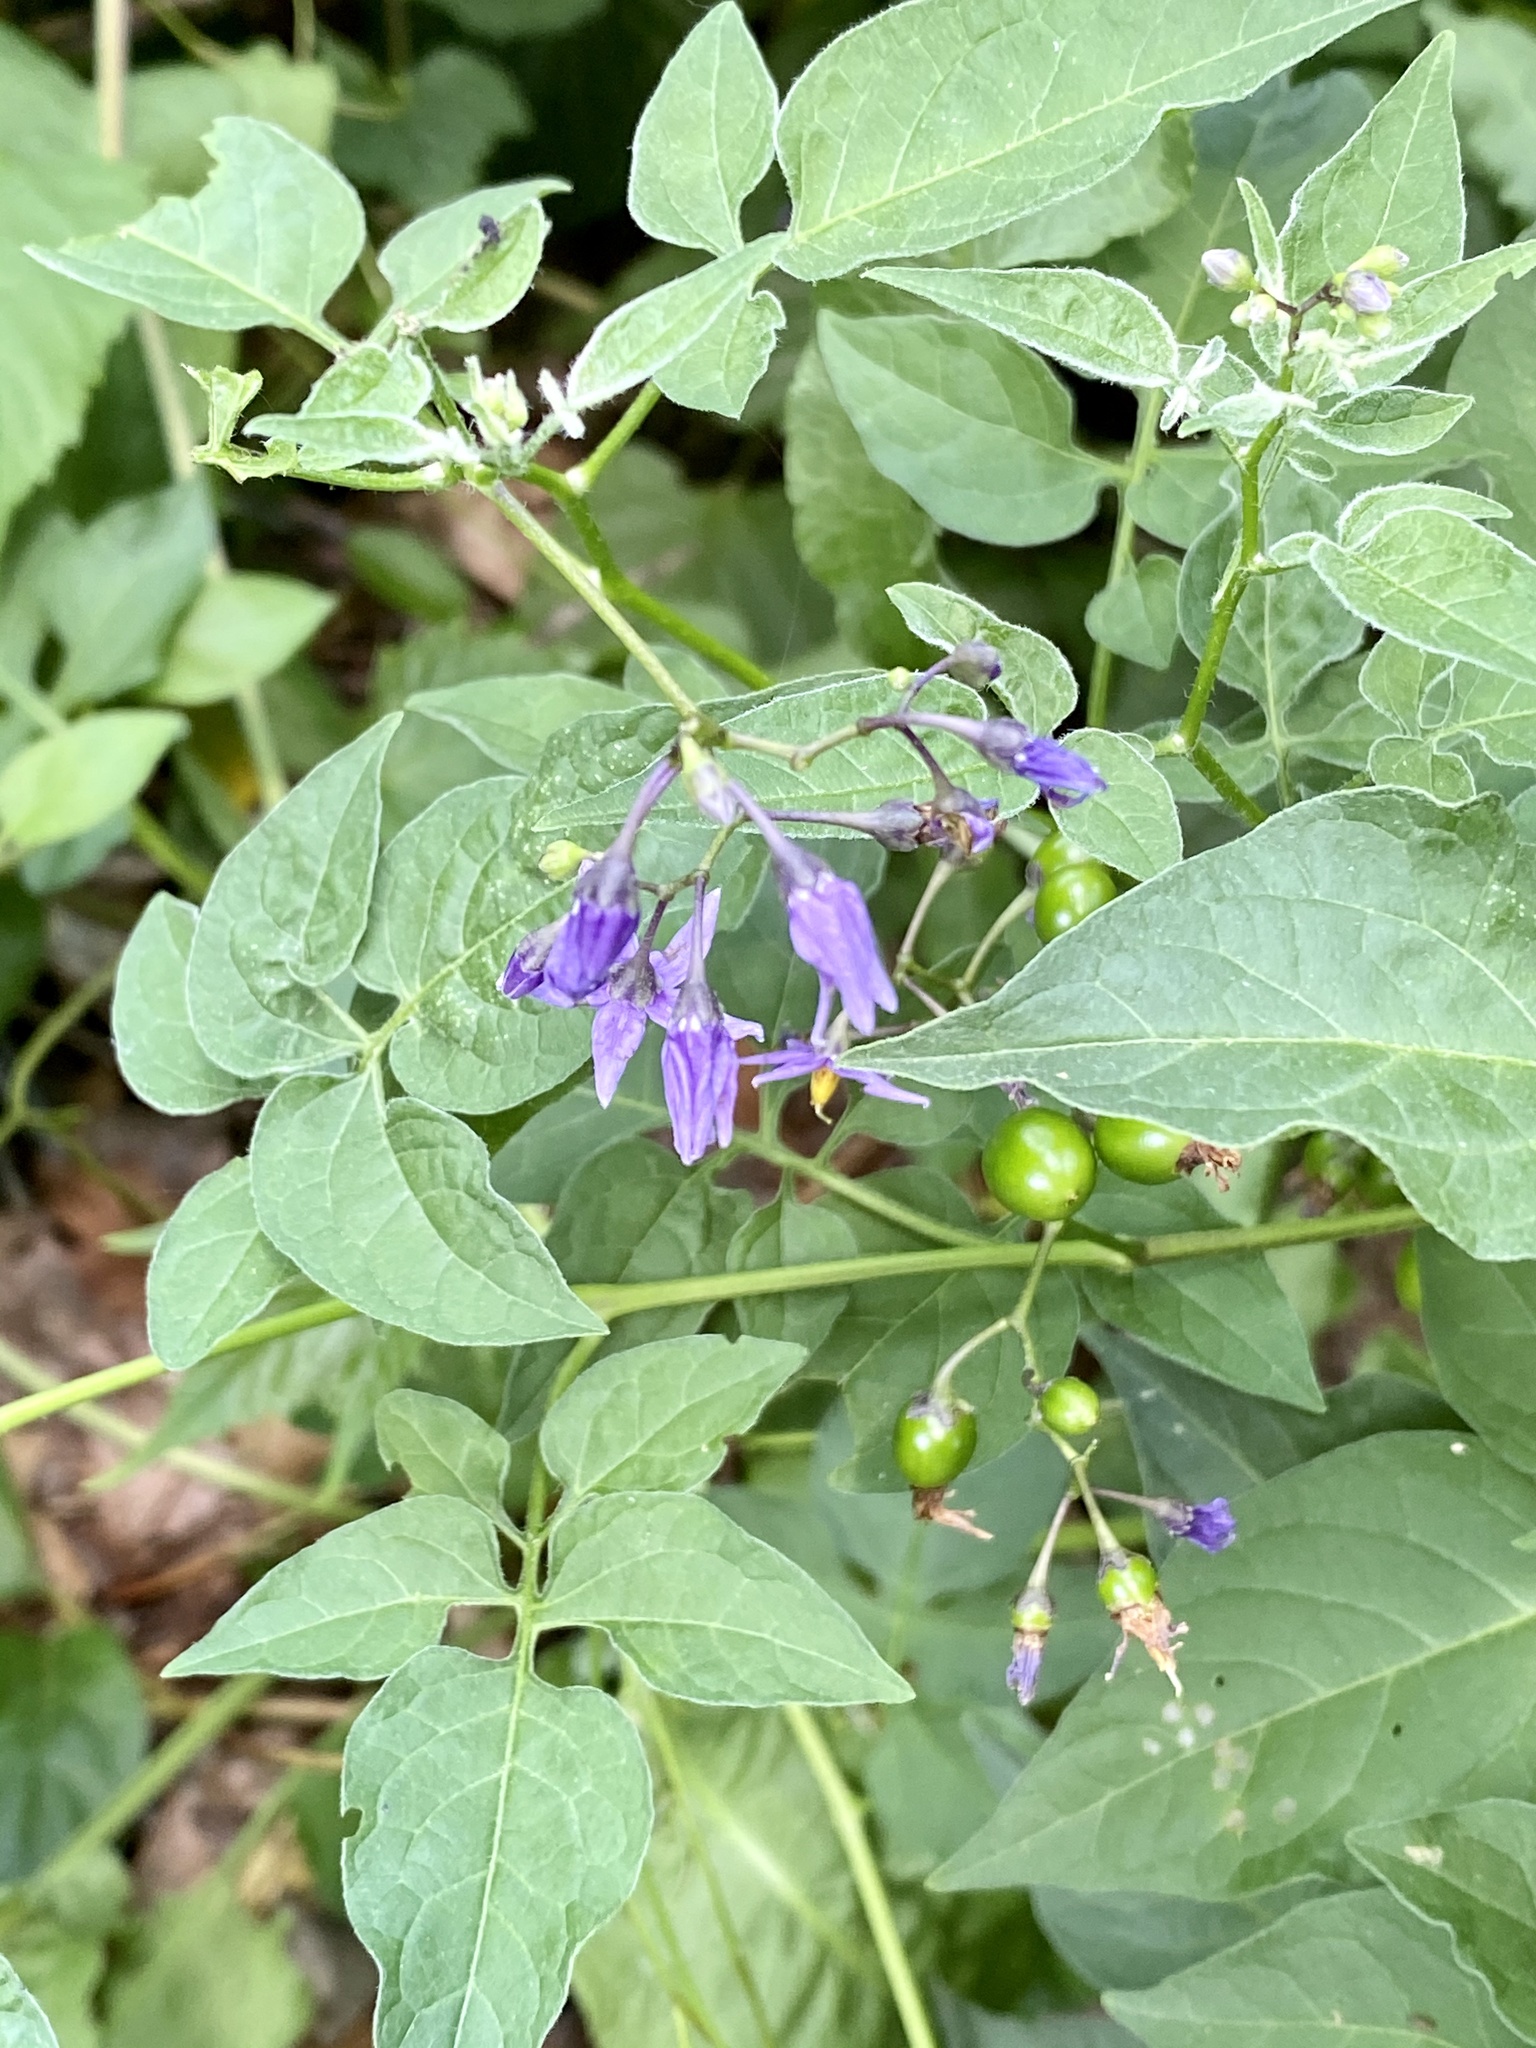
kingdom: Plantae
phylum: Tracheophyta
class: Magnoliopsida
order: Solanales
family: Solanaceae
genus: Solanum
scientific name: Solanum dulcamara
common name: Climbing nightshade
